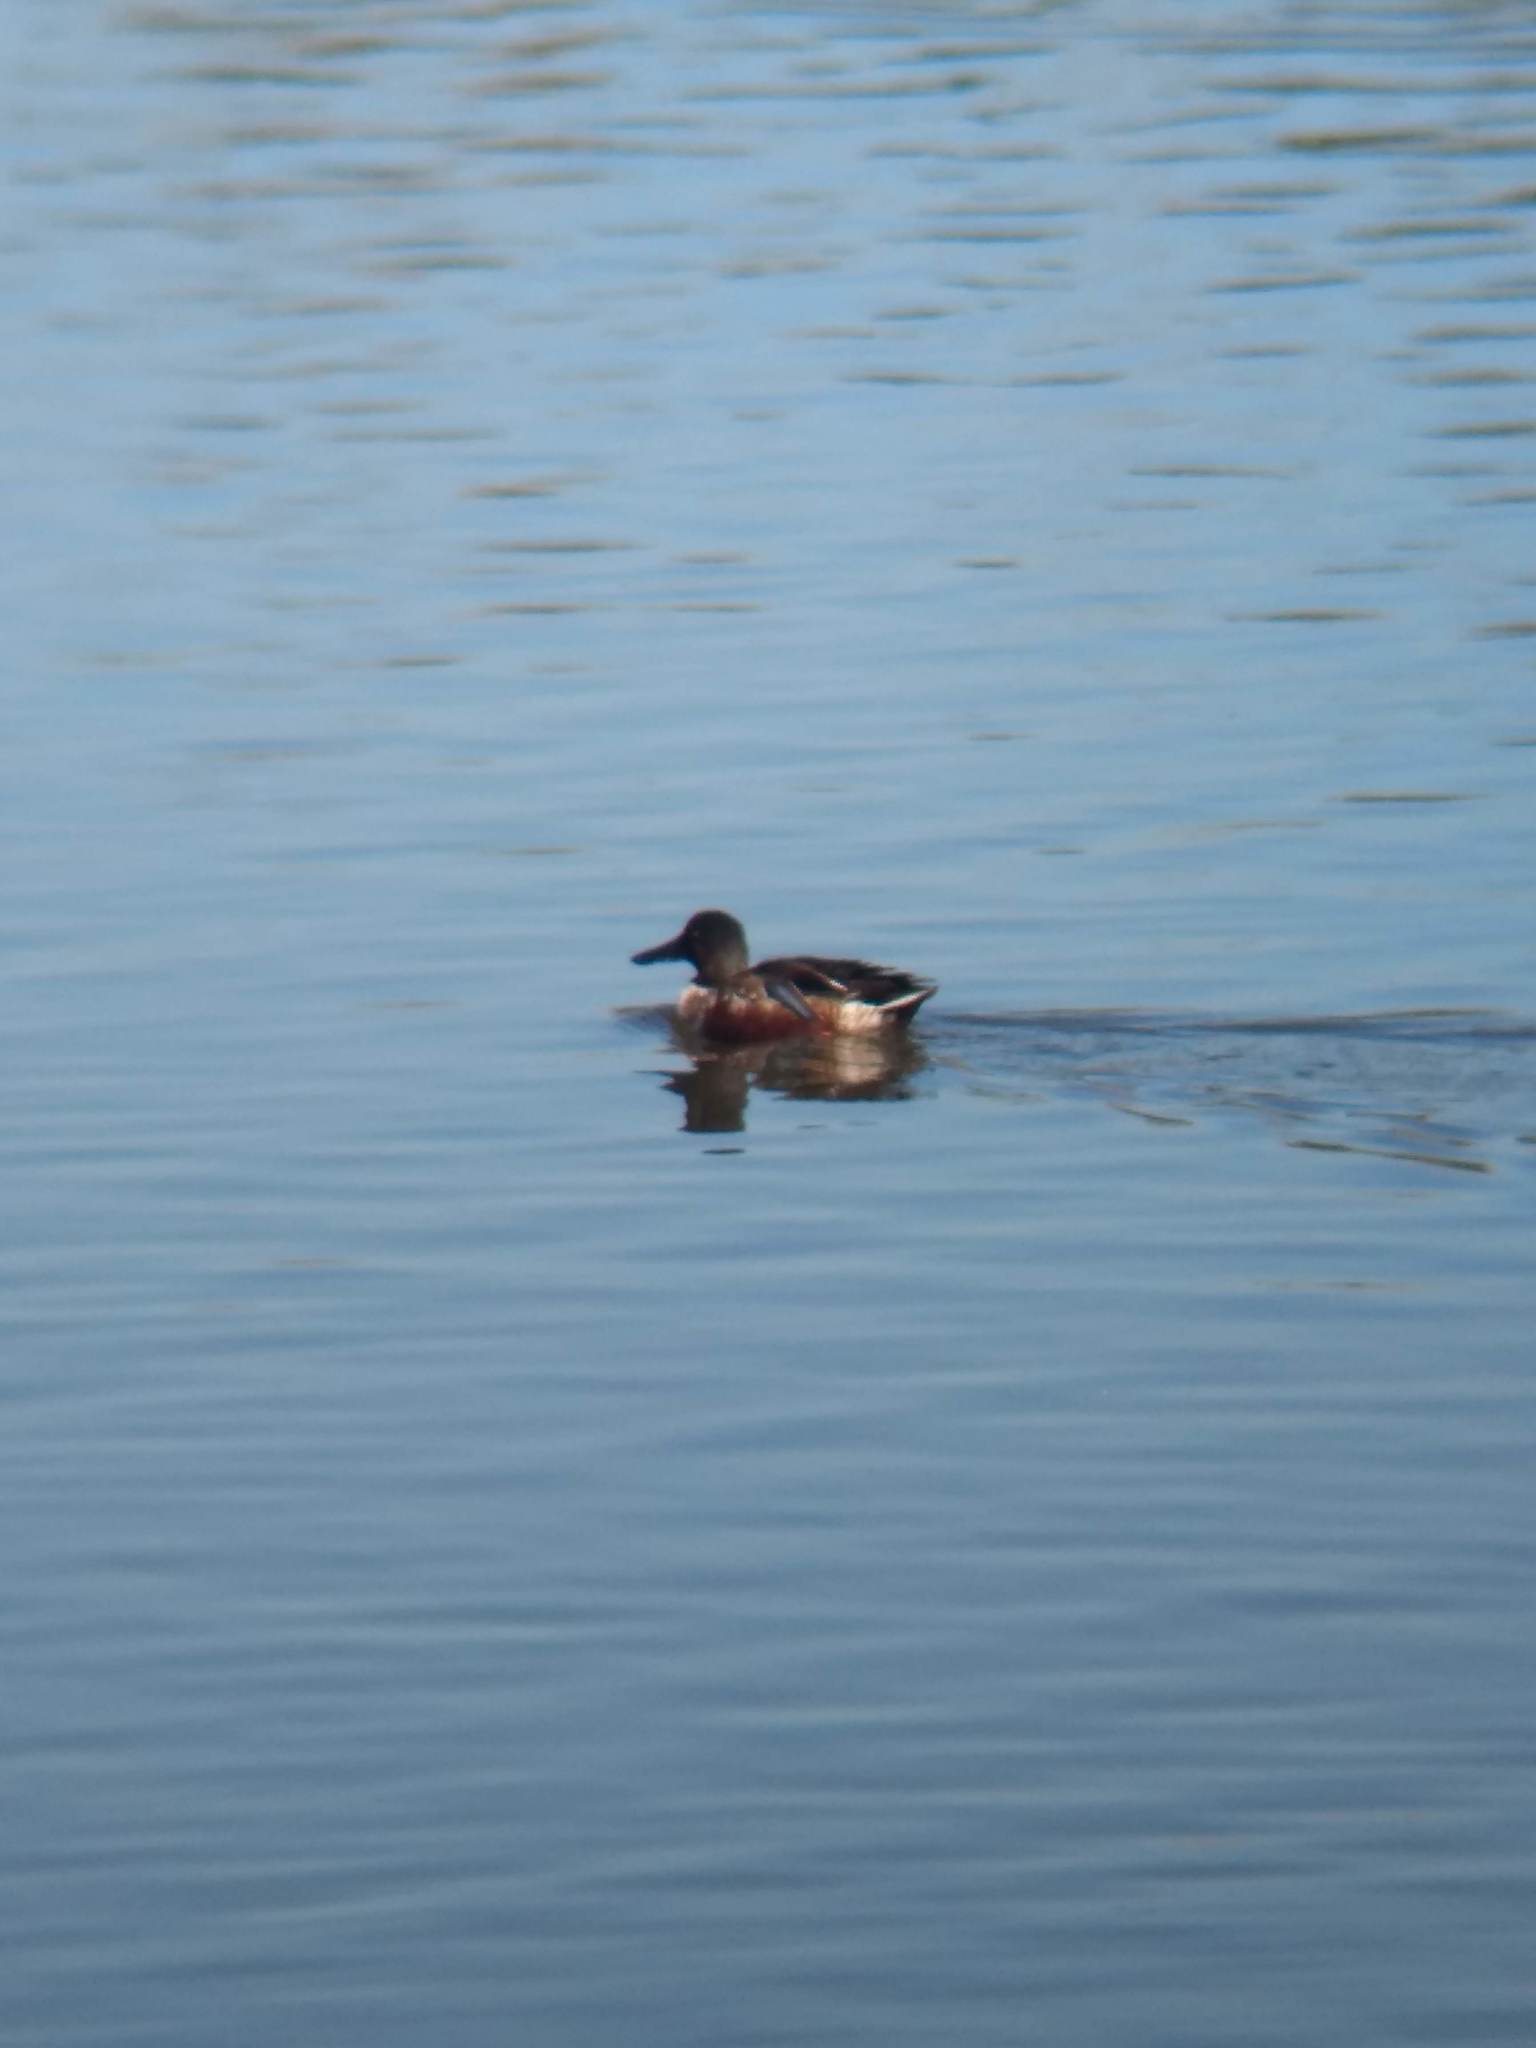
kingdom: Animalia
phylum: Chordata
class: Aves
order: Anseriformes
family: Anatidae
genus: Spatula
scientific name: Spatula clypeata
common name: Northern shoveler
